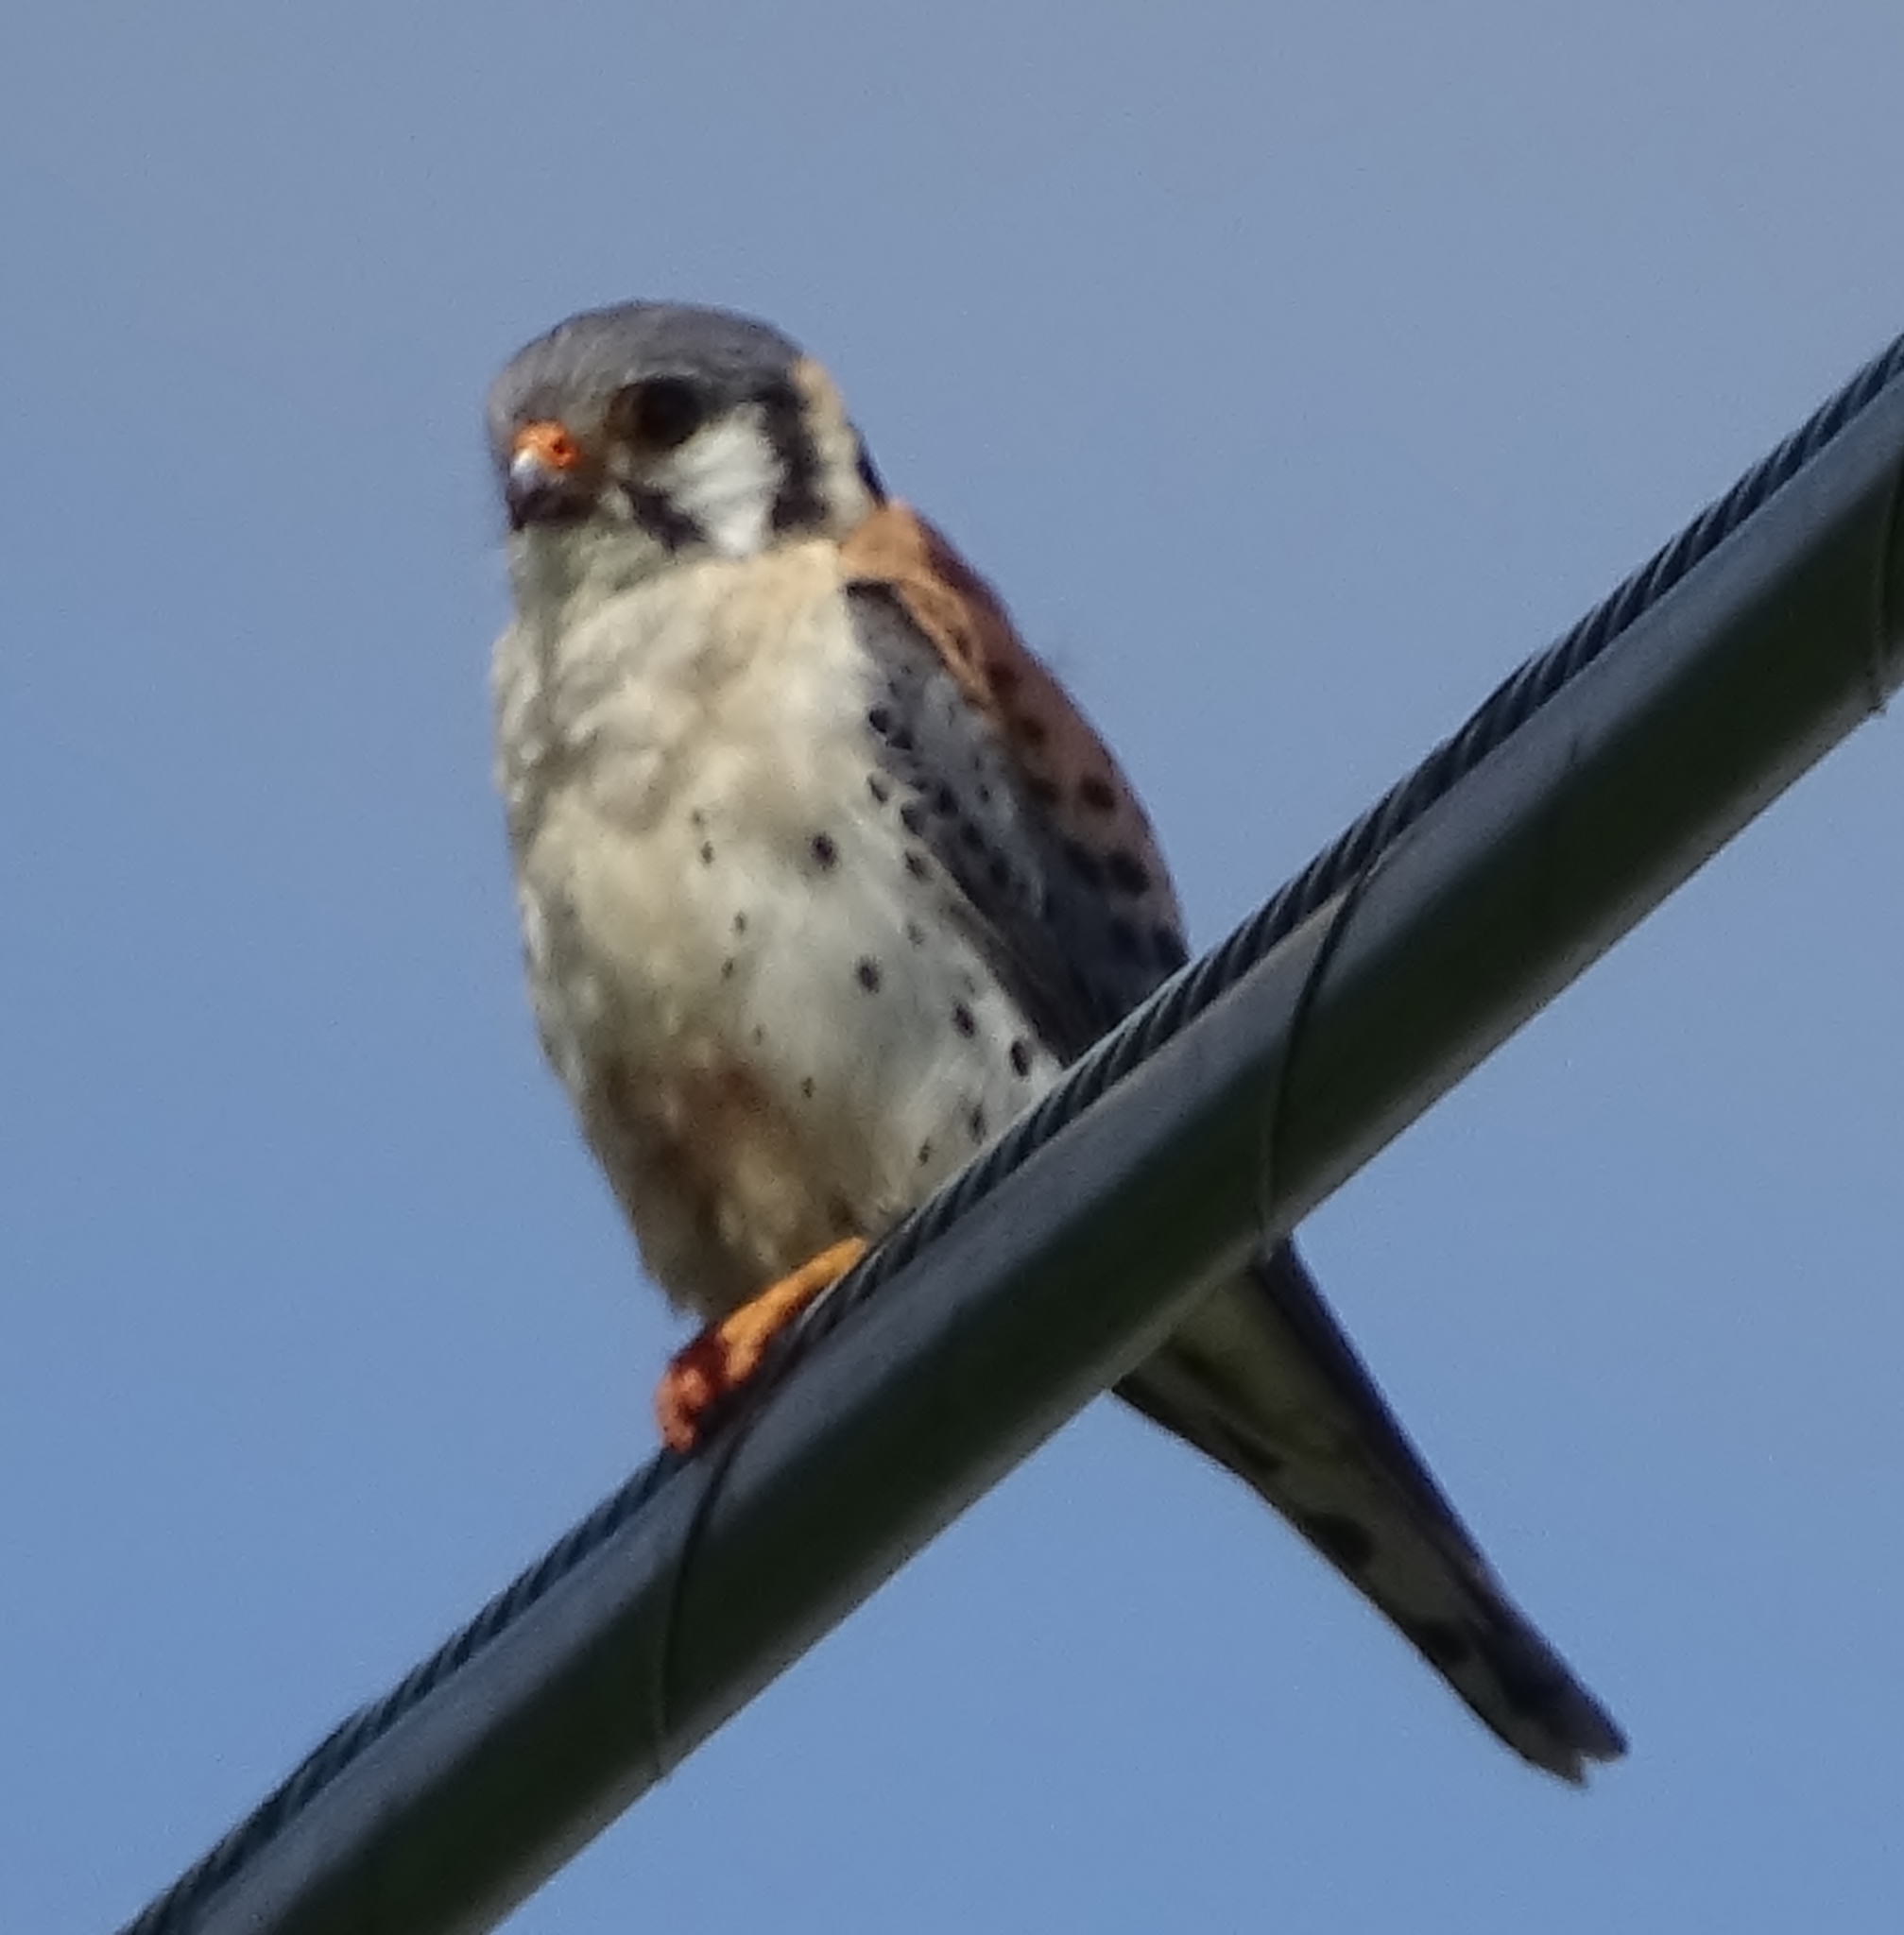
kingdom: Animalia
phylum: Chordata
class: Aves
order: Falconiformes
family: Falconidae
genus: Falco
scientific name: Falco sparverius
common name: American kestrel
